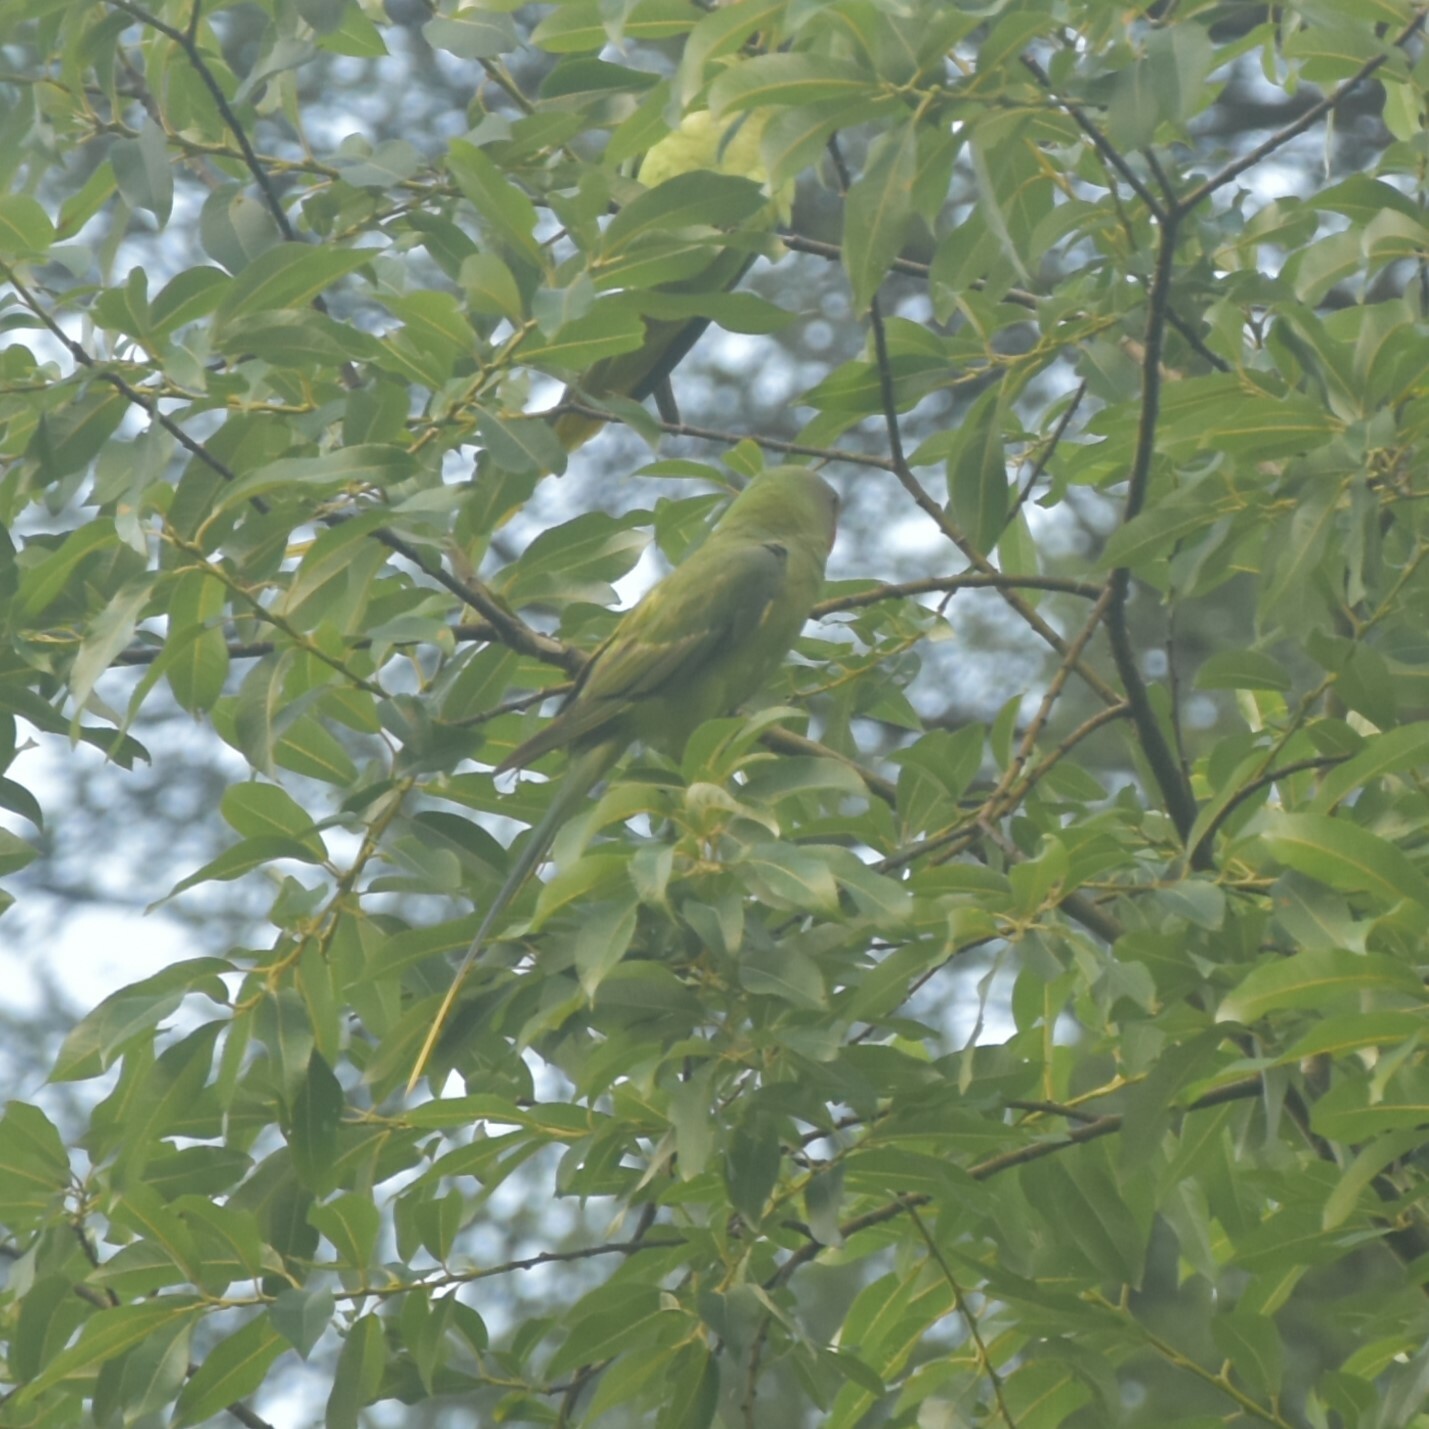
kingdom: Animalia
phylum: Chordata
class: Aves
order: Psittaciformes
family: Psittacidae
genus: Psittacula
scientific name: Psittacula himalayana
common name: Slaty-headed parakeet
